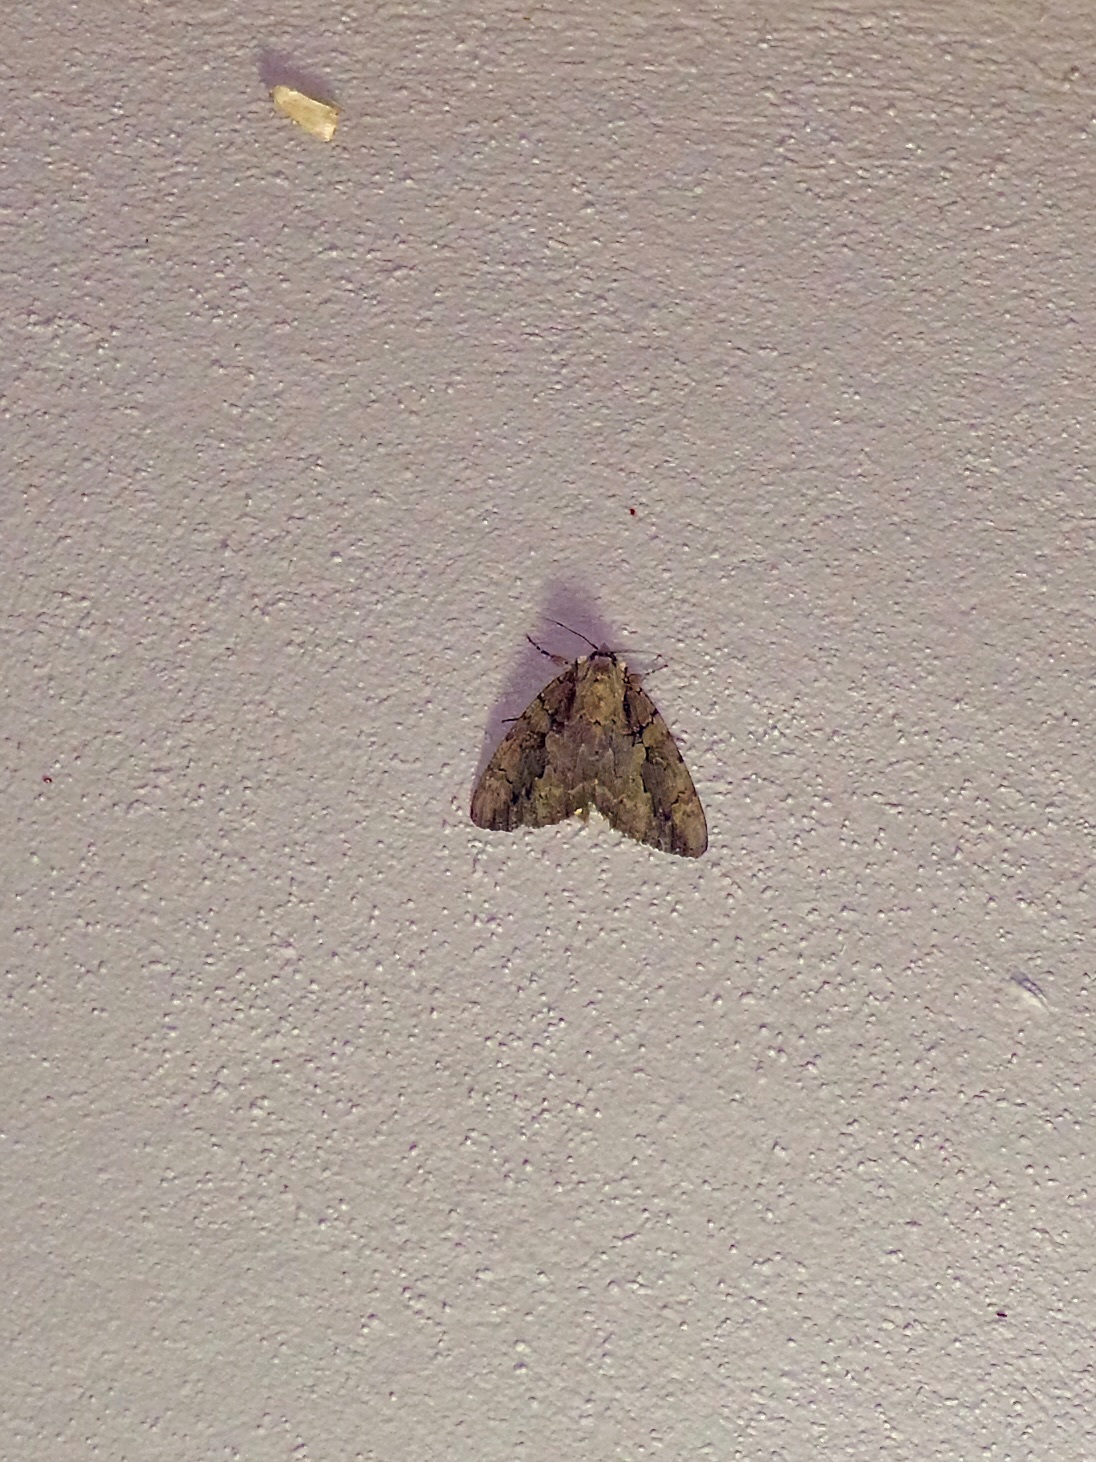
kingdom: Animalia
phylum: Arthropoda
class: Insecta
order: Lepidoptera
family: Erebidae
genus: Catocala
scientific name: Catocala amatrix
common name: Sweetheart underwing
